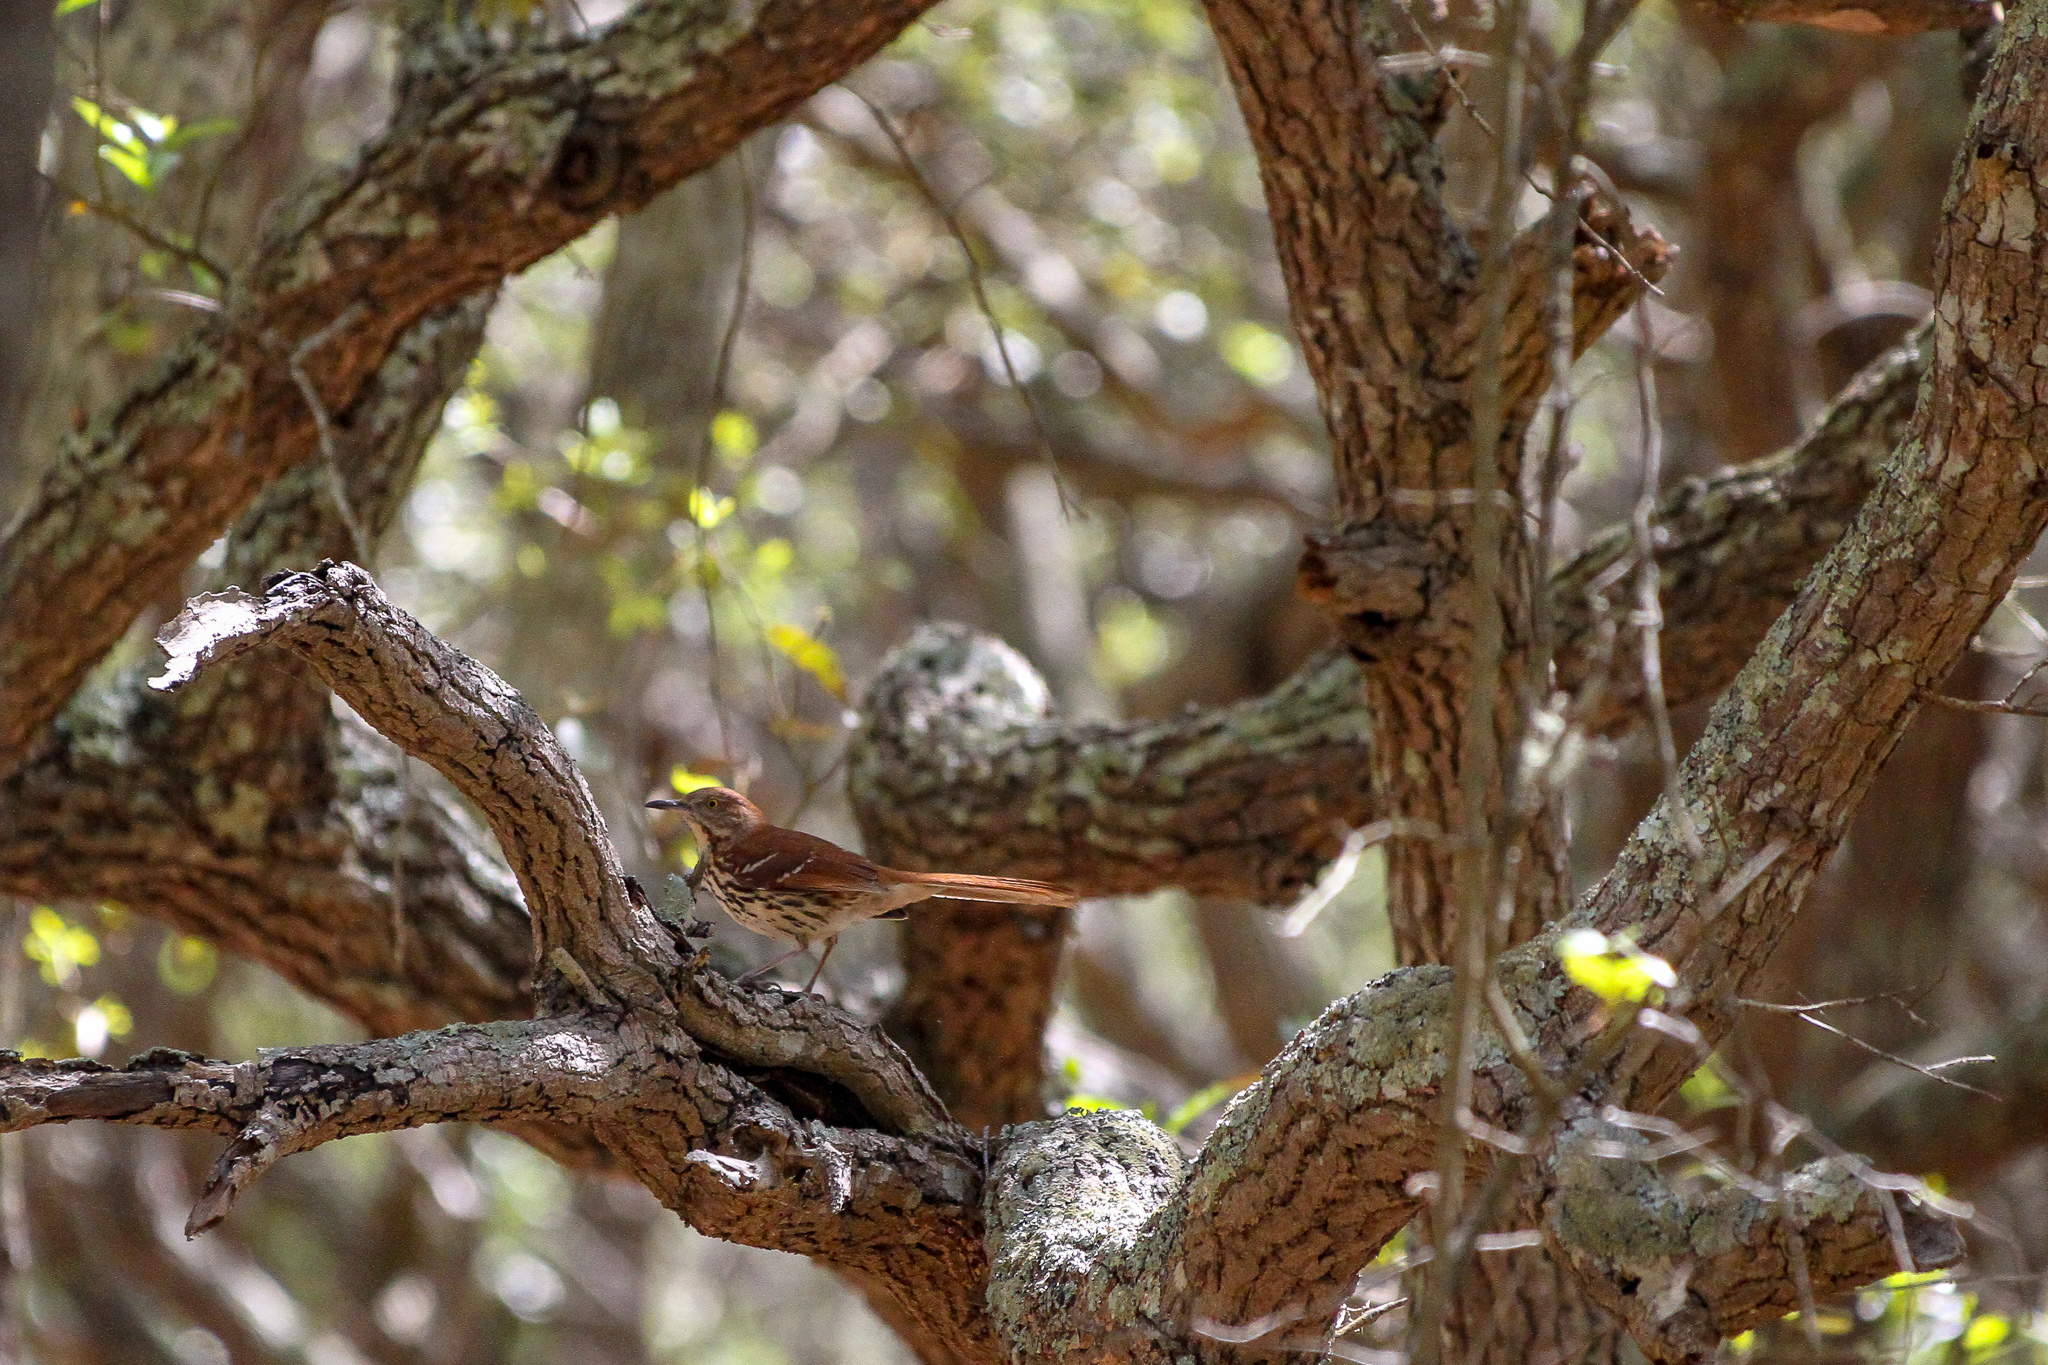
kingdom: Animalia
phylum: Chordata
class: Aves
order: Passeriformes
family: Mimidae
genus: Toxostoma
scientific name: Toxostoma rufum
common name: Brown thrasher
